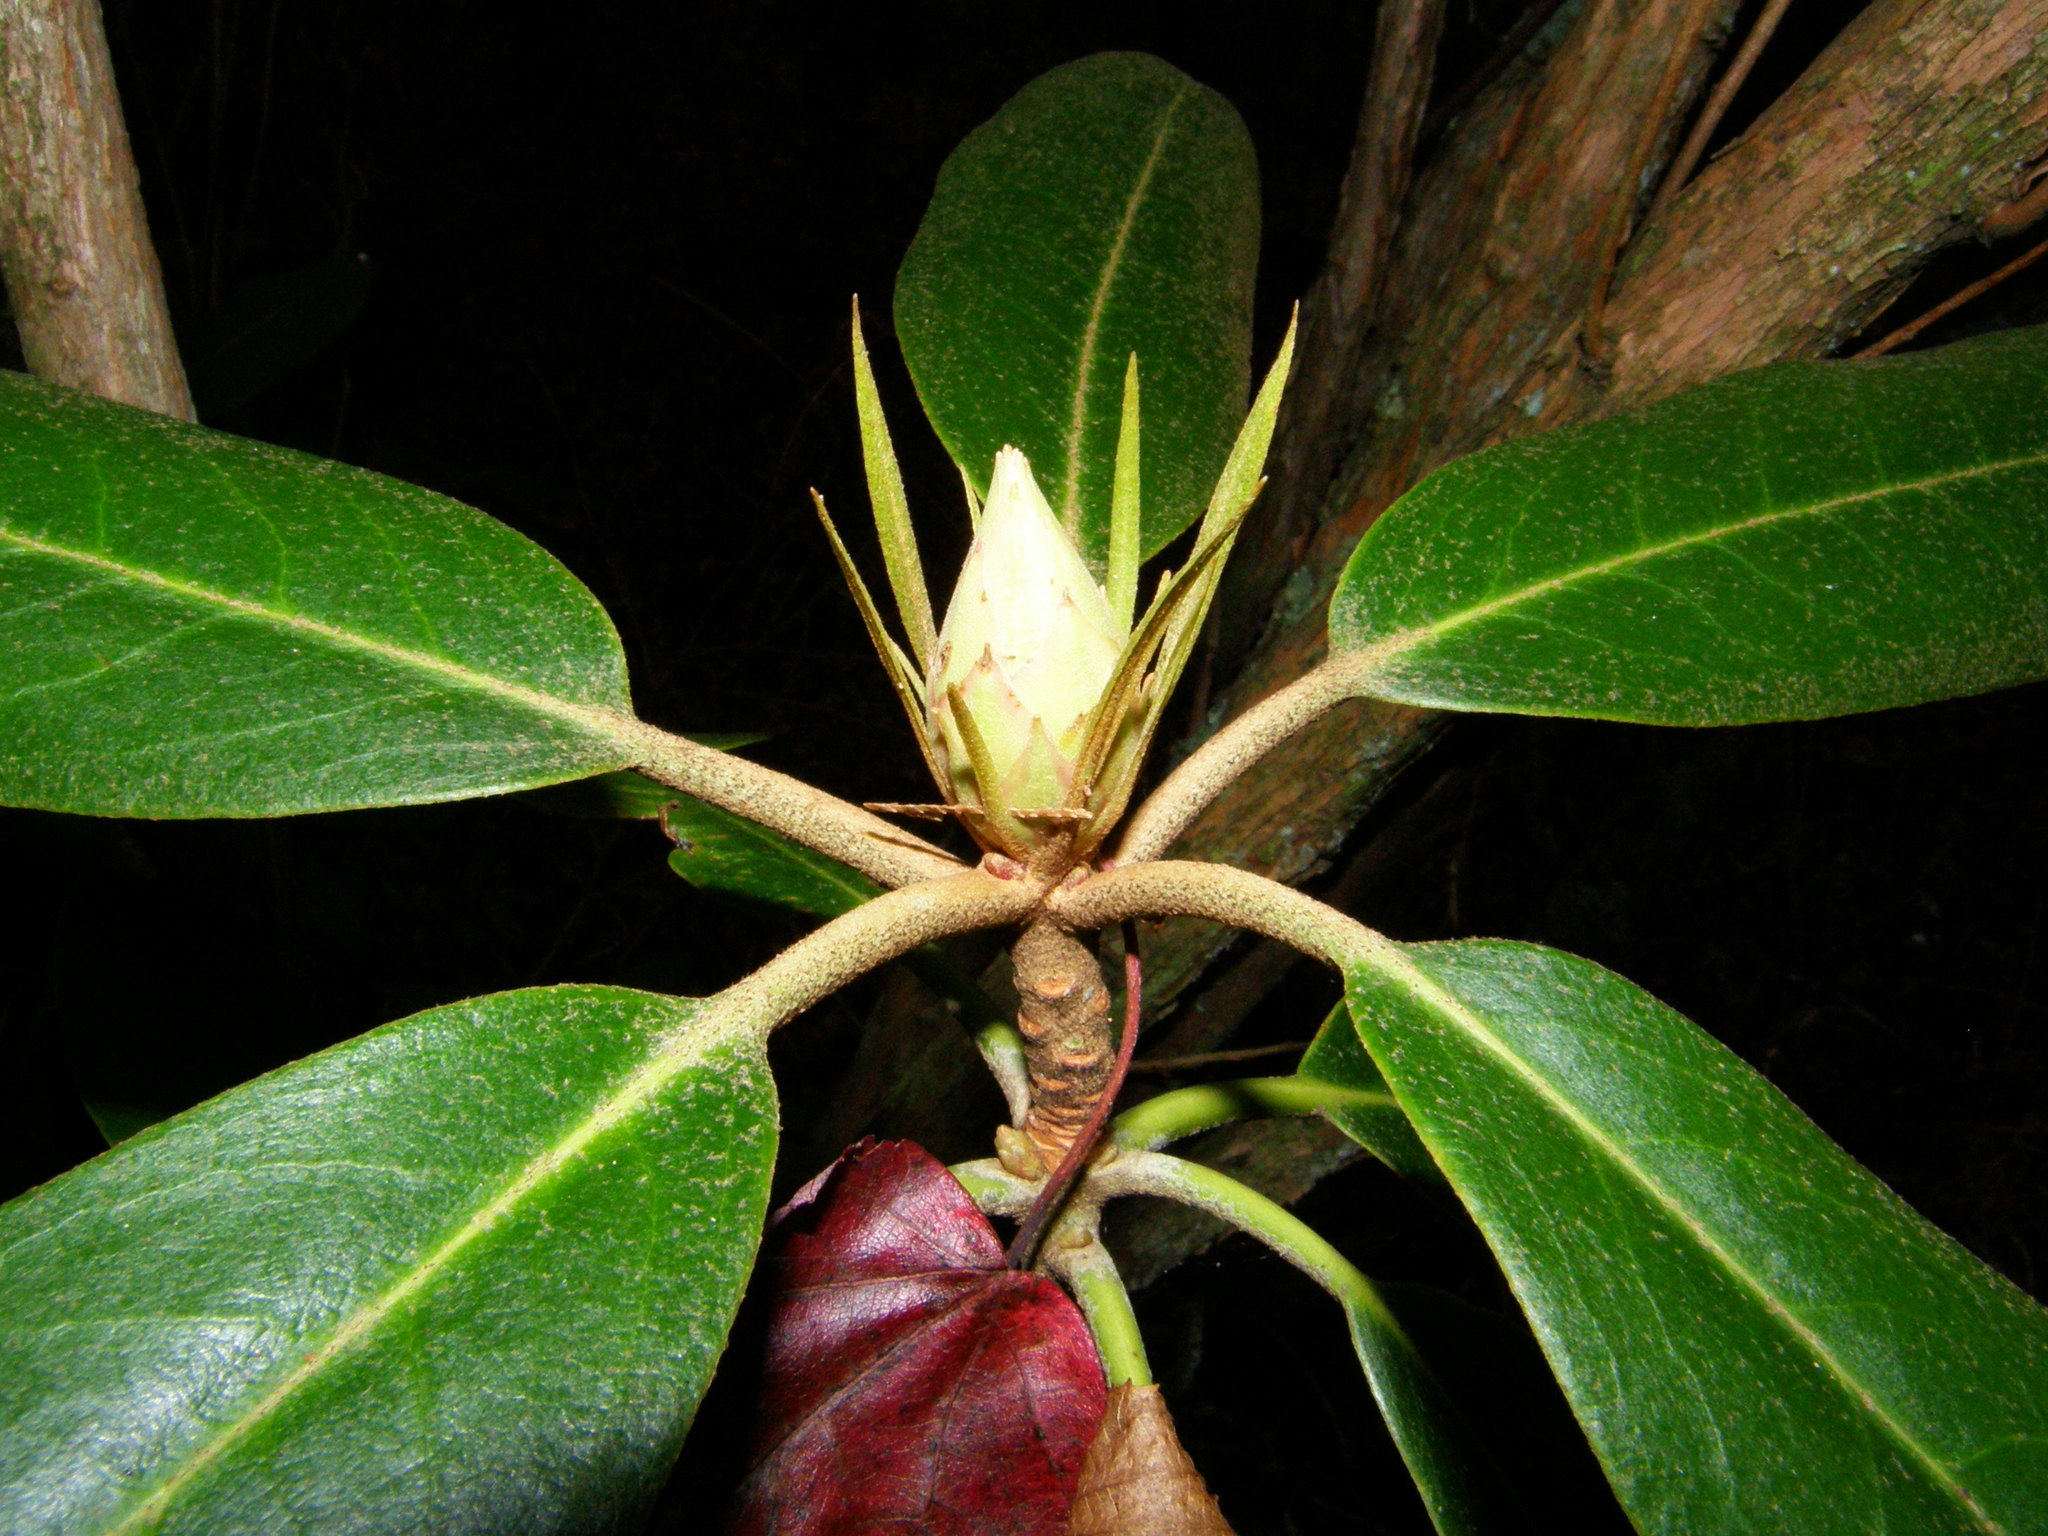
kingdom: Plantae
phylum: Tracheophyta
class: Magnoliopsida
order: Ericales
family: Ericaceae
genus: Rhododendron
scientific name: Rhododendron maximum
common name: Great rhododendron
